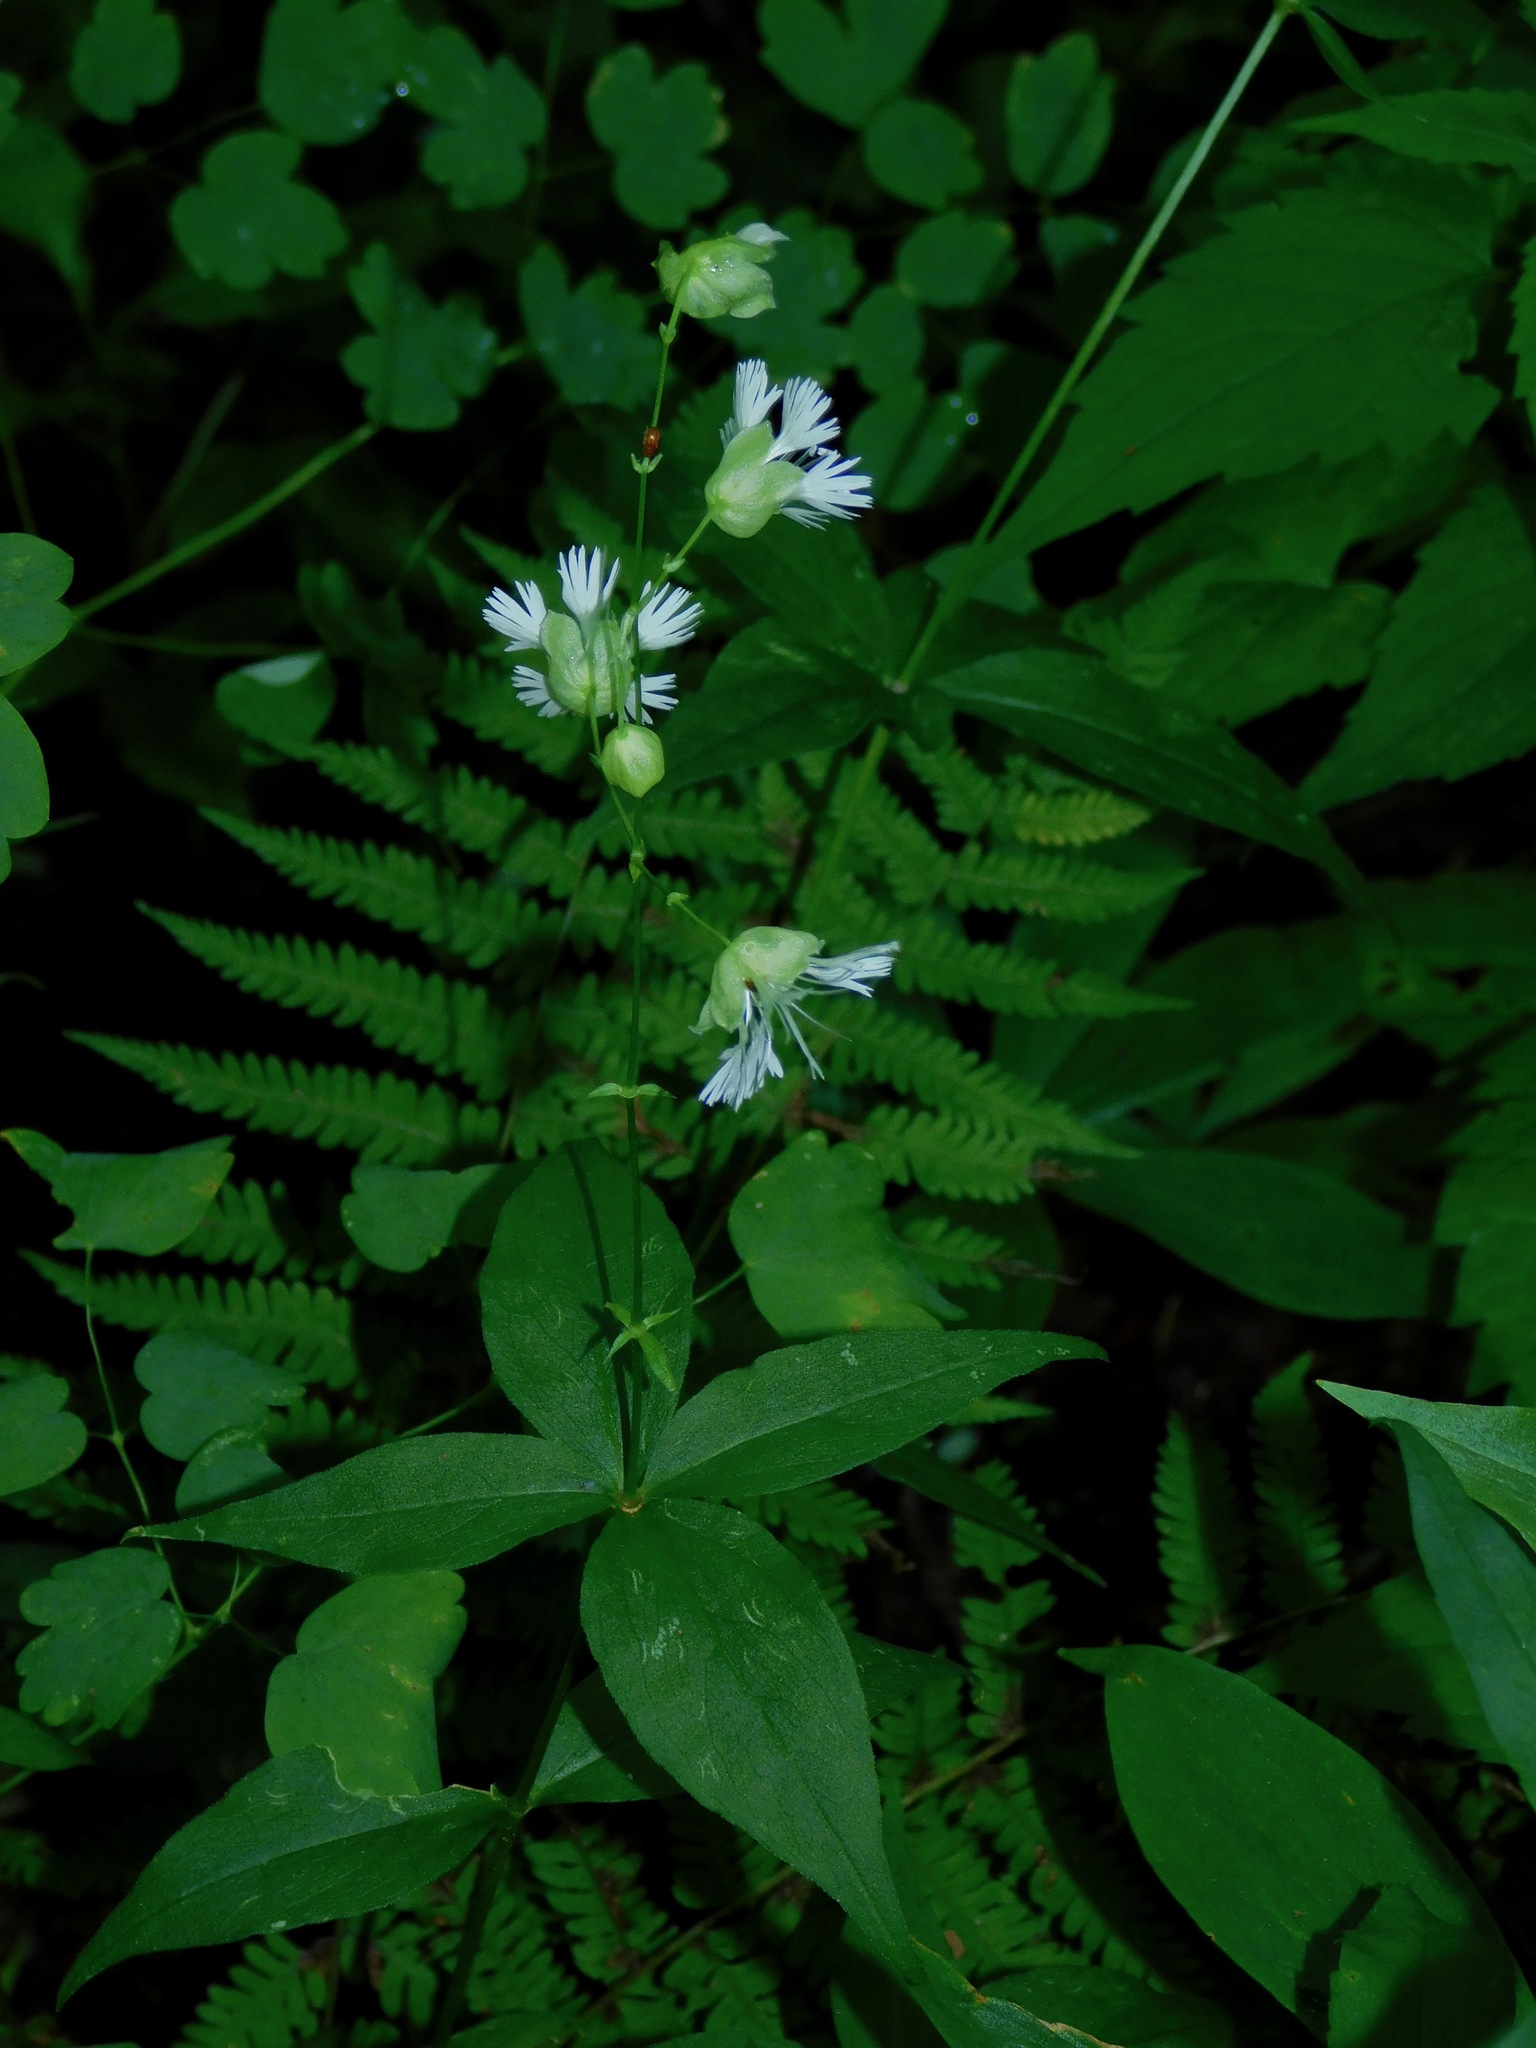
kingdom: Plantae
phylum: Tracheophyta
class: Magnoliopsida
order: Caryophyllales
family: Caryophyllaceae
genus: Silene
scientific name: Silene stellata
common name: Starry campion
